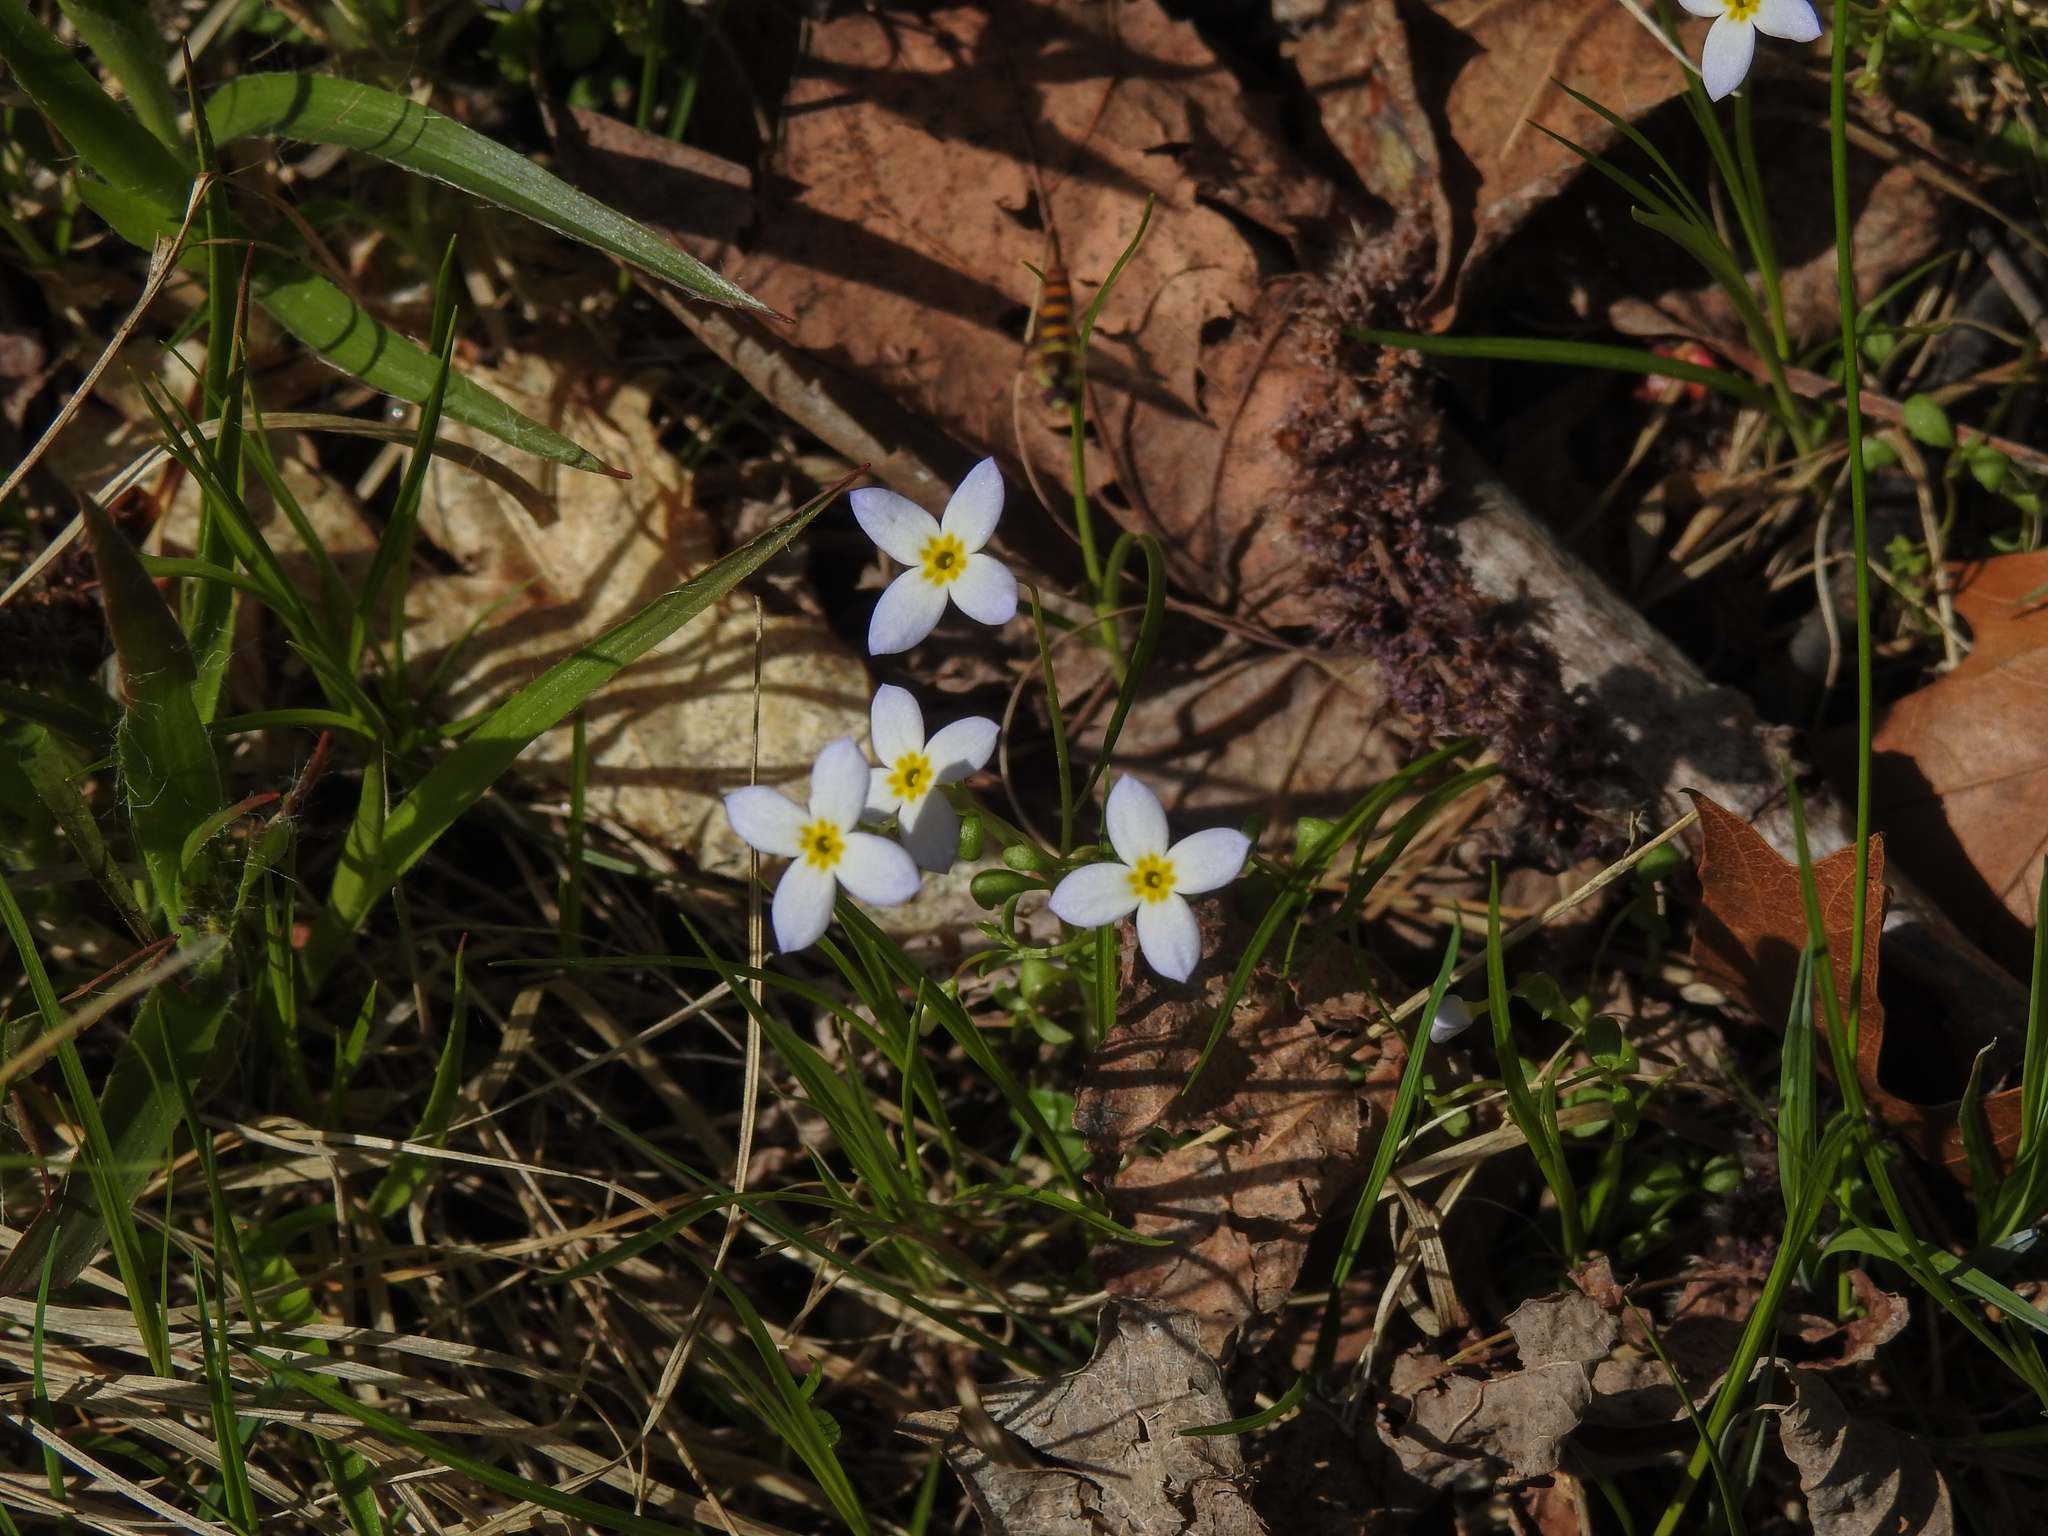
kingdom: Plantae
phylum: Tracheophyta
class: Magnoliopsida
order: Gentianales
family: Rubiaceae
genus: Houstonia
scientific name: Houstonia caerulea
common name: Bluets
